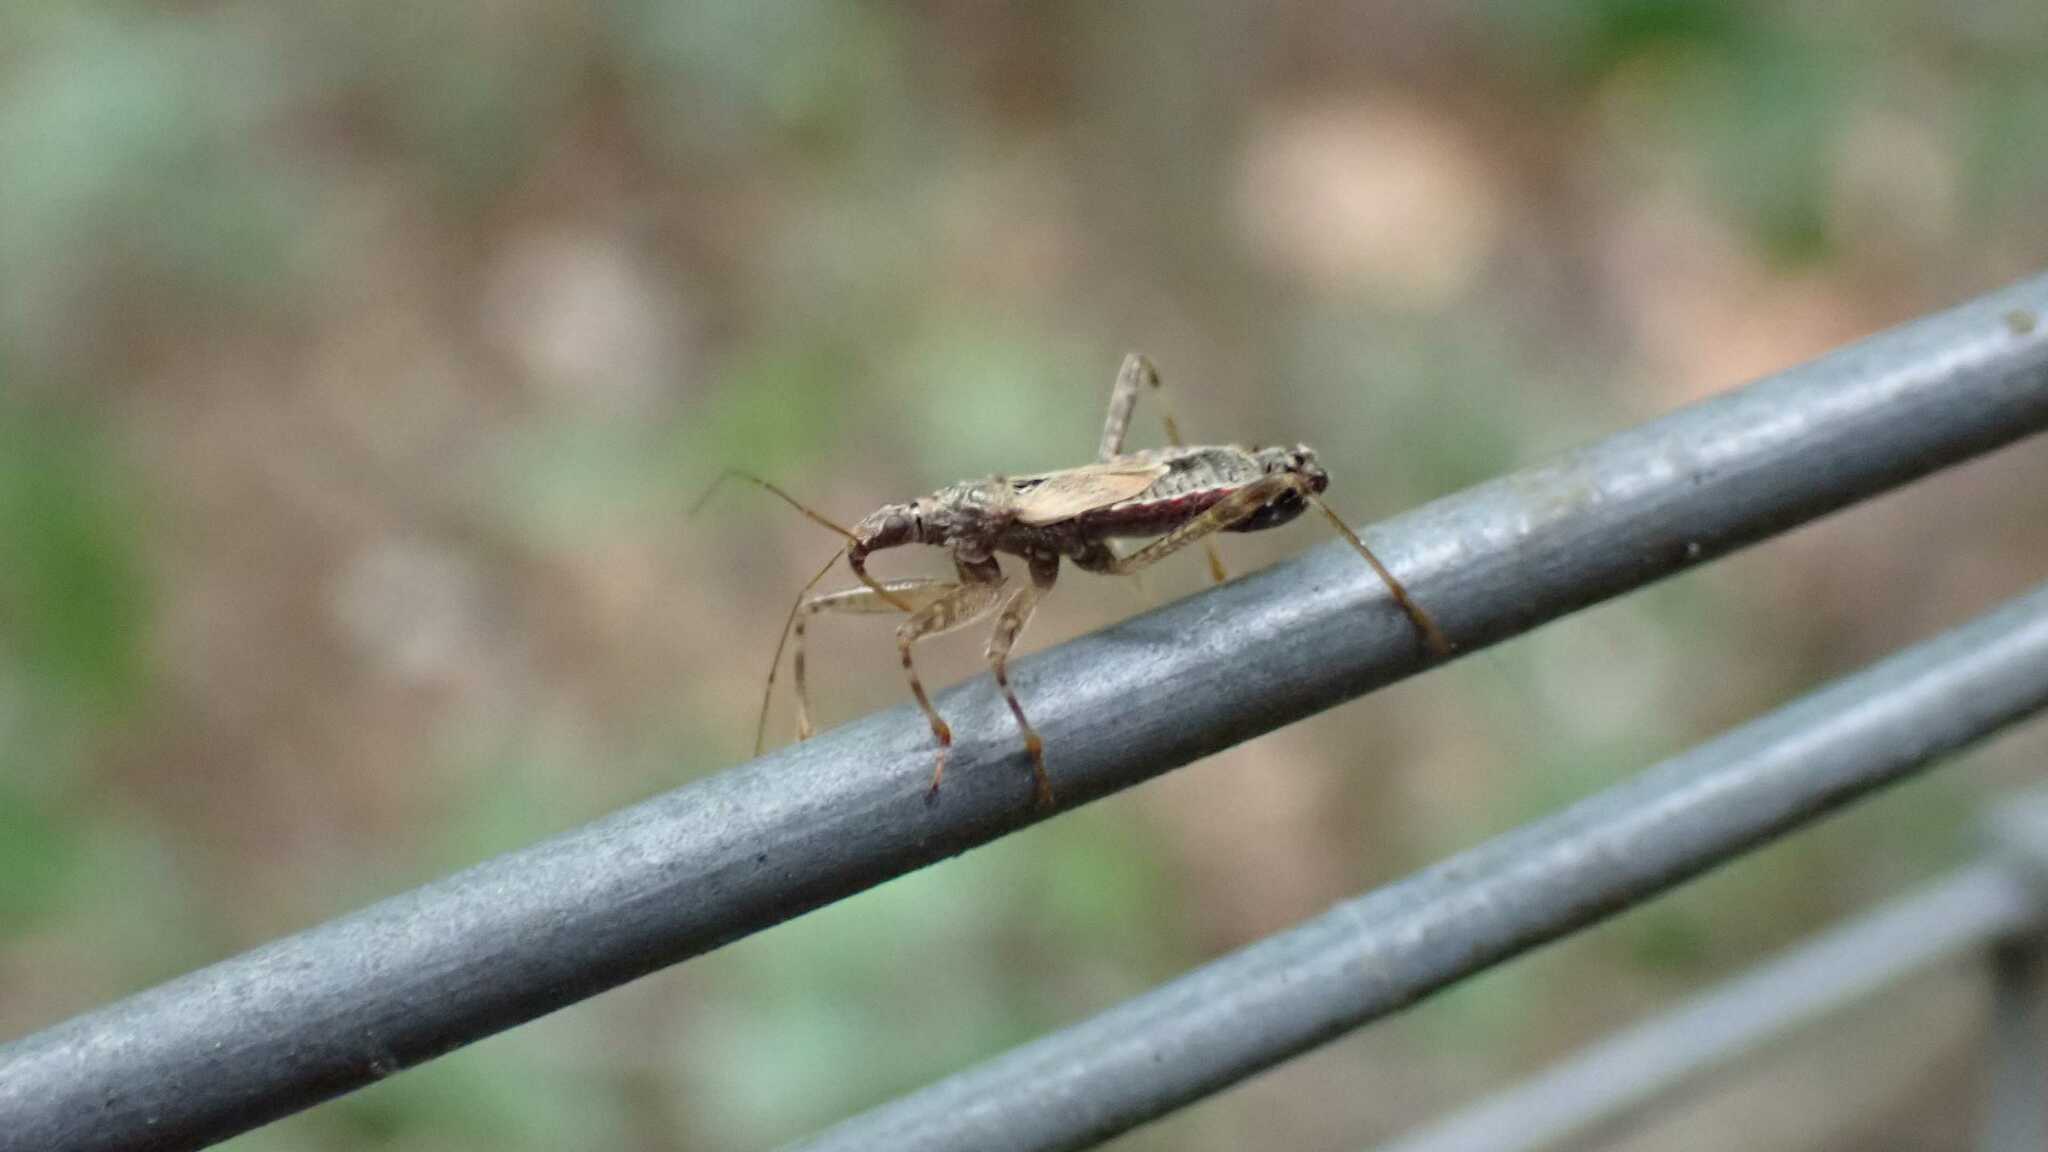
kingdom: Animalia
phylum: Arthropoda
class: Insecta
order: Hemiptera
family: Nabidae
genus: Himacerus
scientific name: Himacerus apterus
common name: Tree damsel bug
